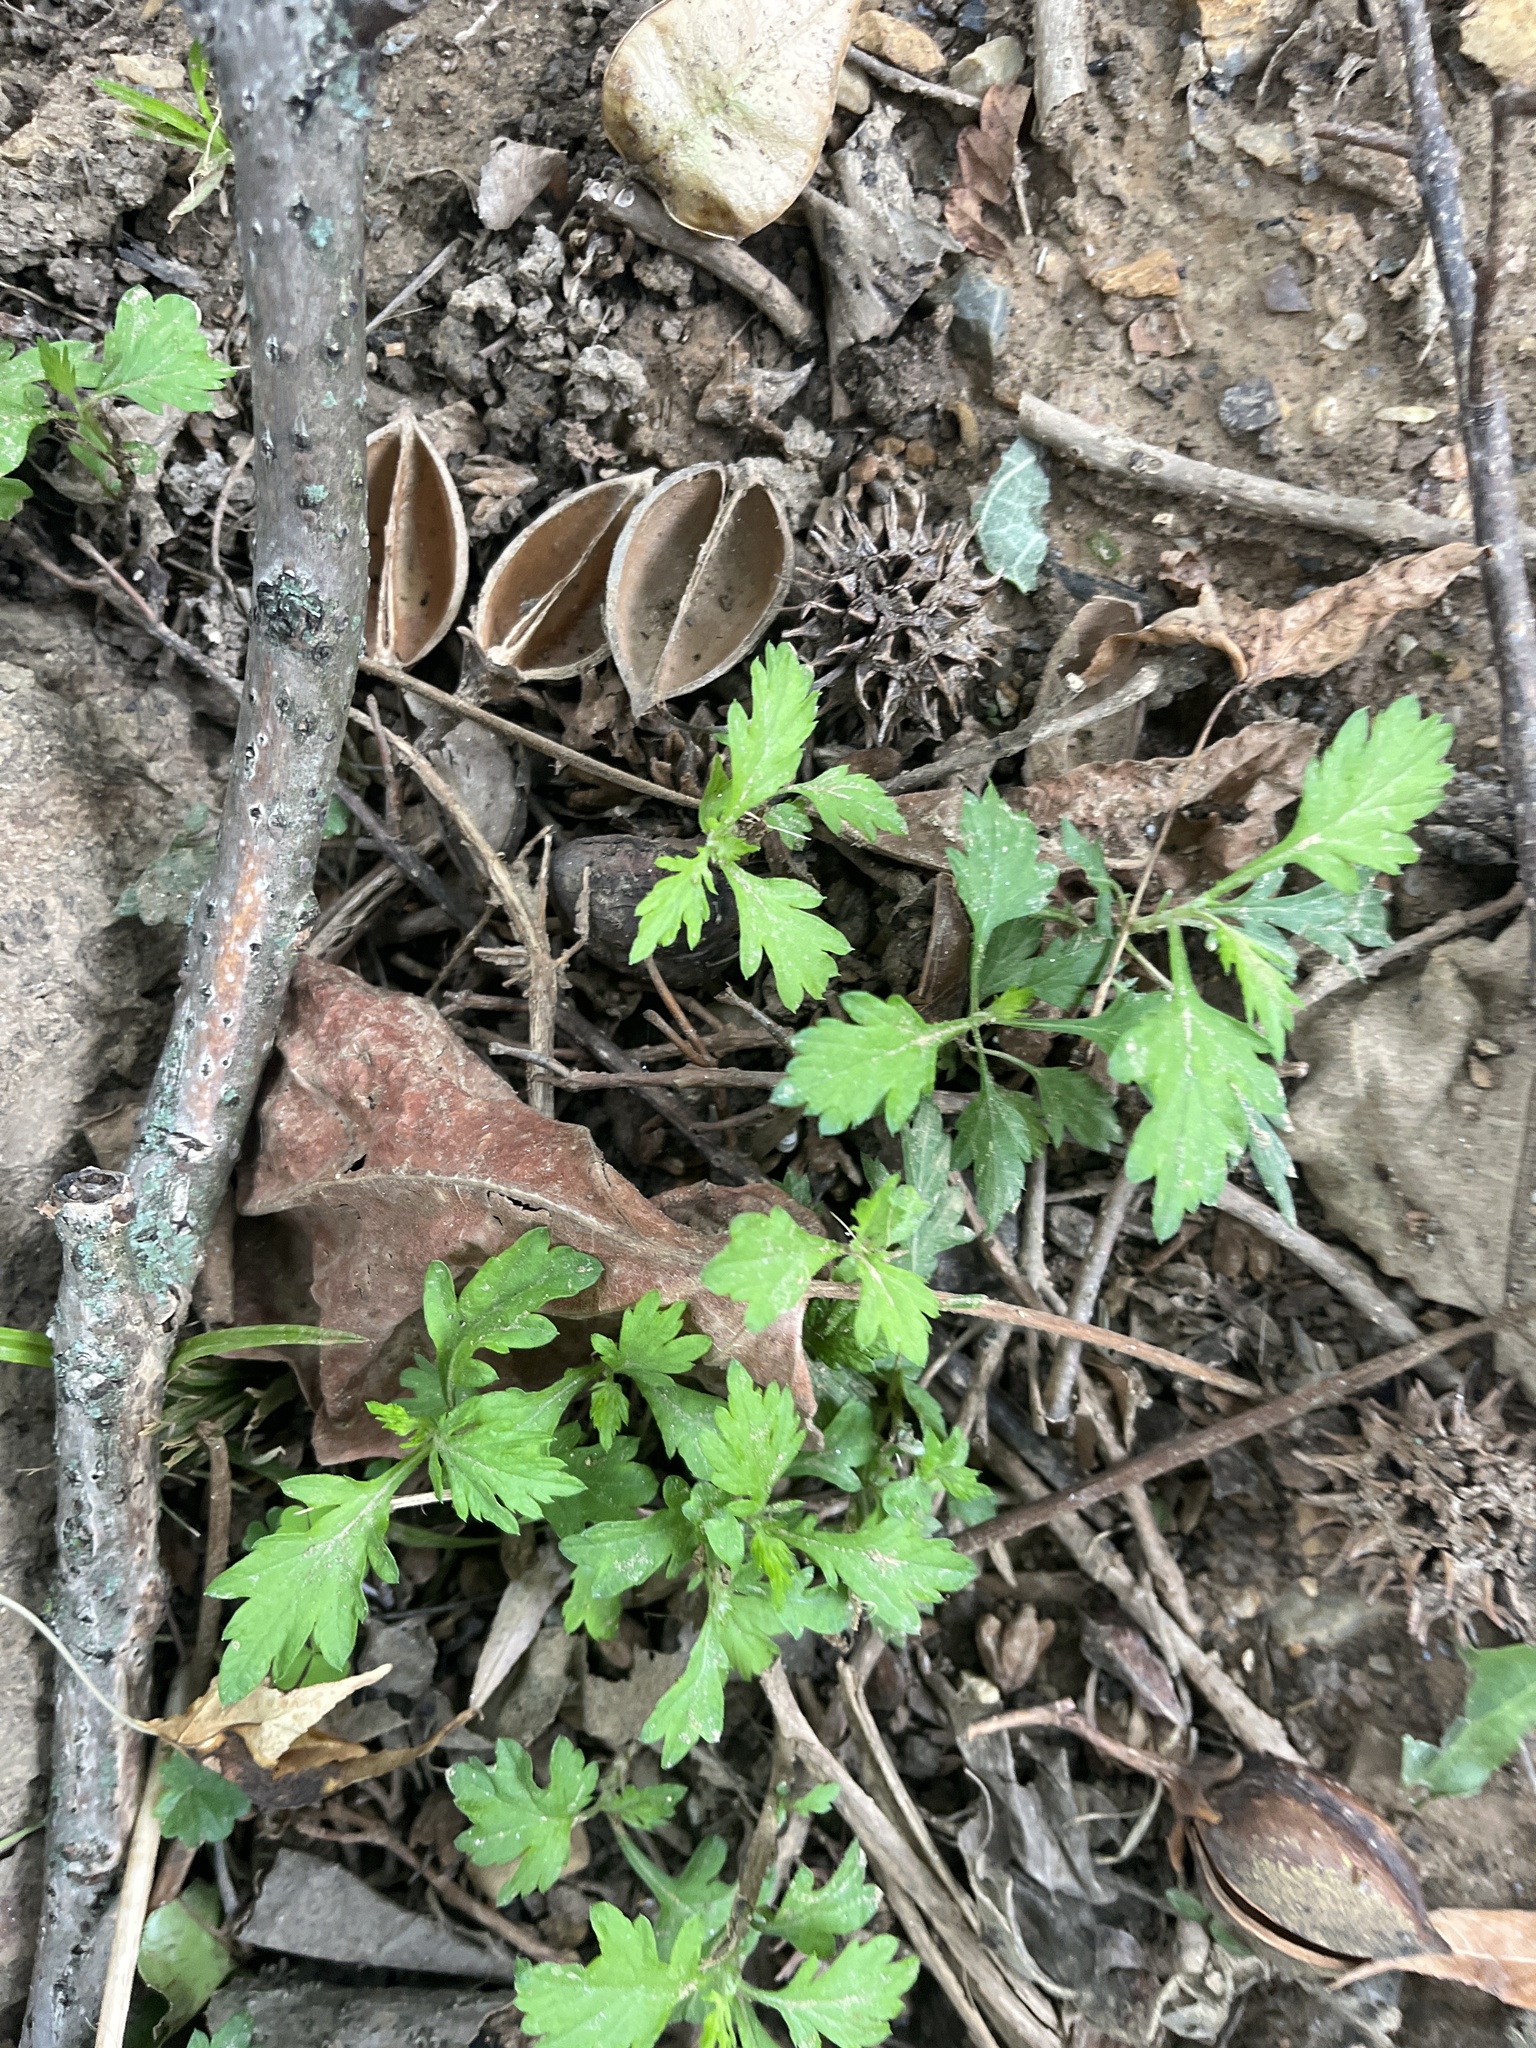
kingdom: Plantae
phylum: Tracheophyta
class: Magnoliopsida
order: Asterales
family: Asteraceae
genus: Artemisia
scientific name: Artemisia vulgaris
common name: Mugwort
